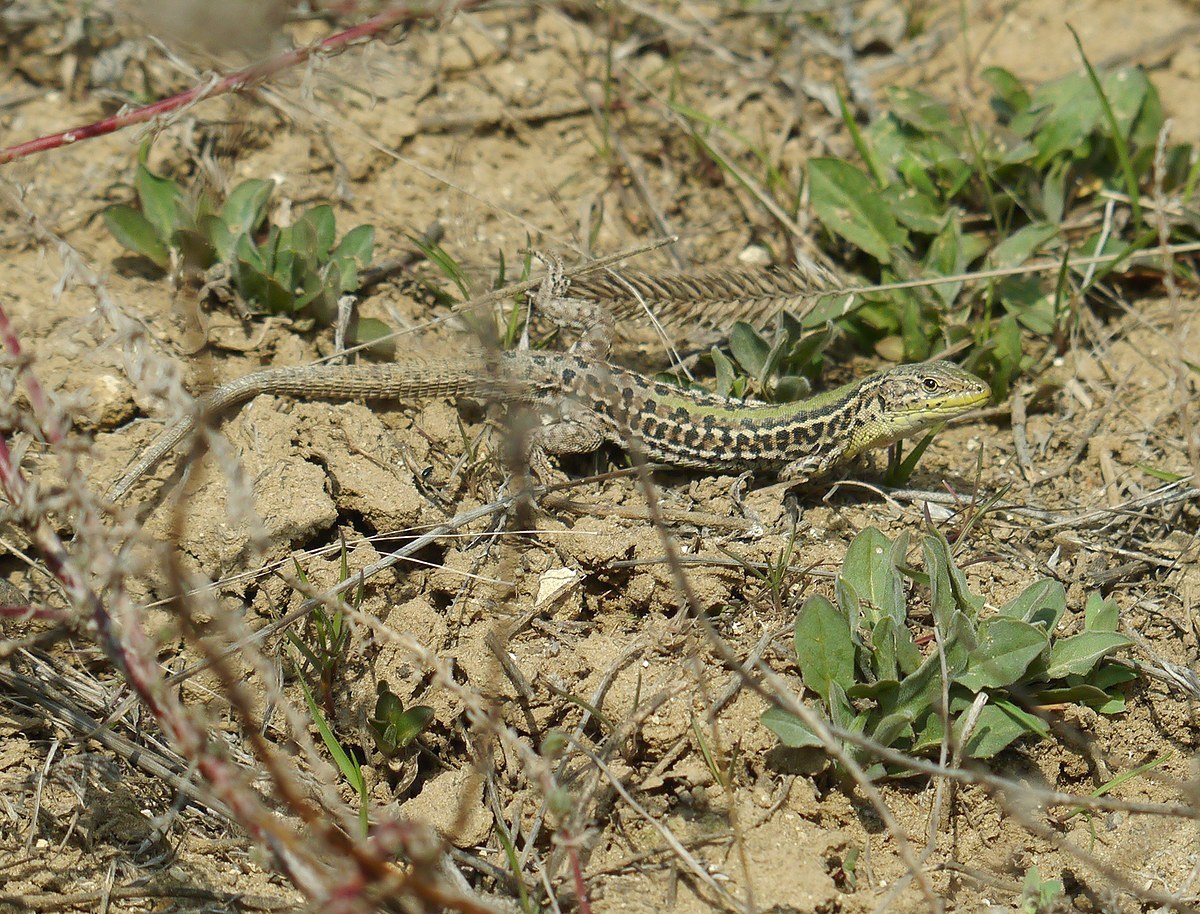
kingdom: Animalia
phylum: Chordata
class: Squamata
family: Lacertidae
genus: Podarcis
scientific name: Podarcis tauricus
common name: Balkan wall lizard
